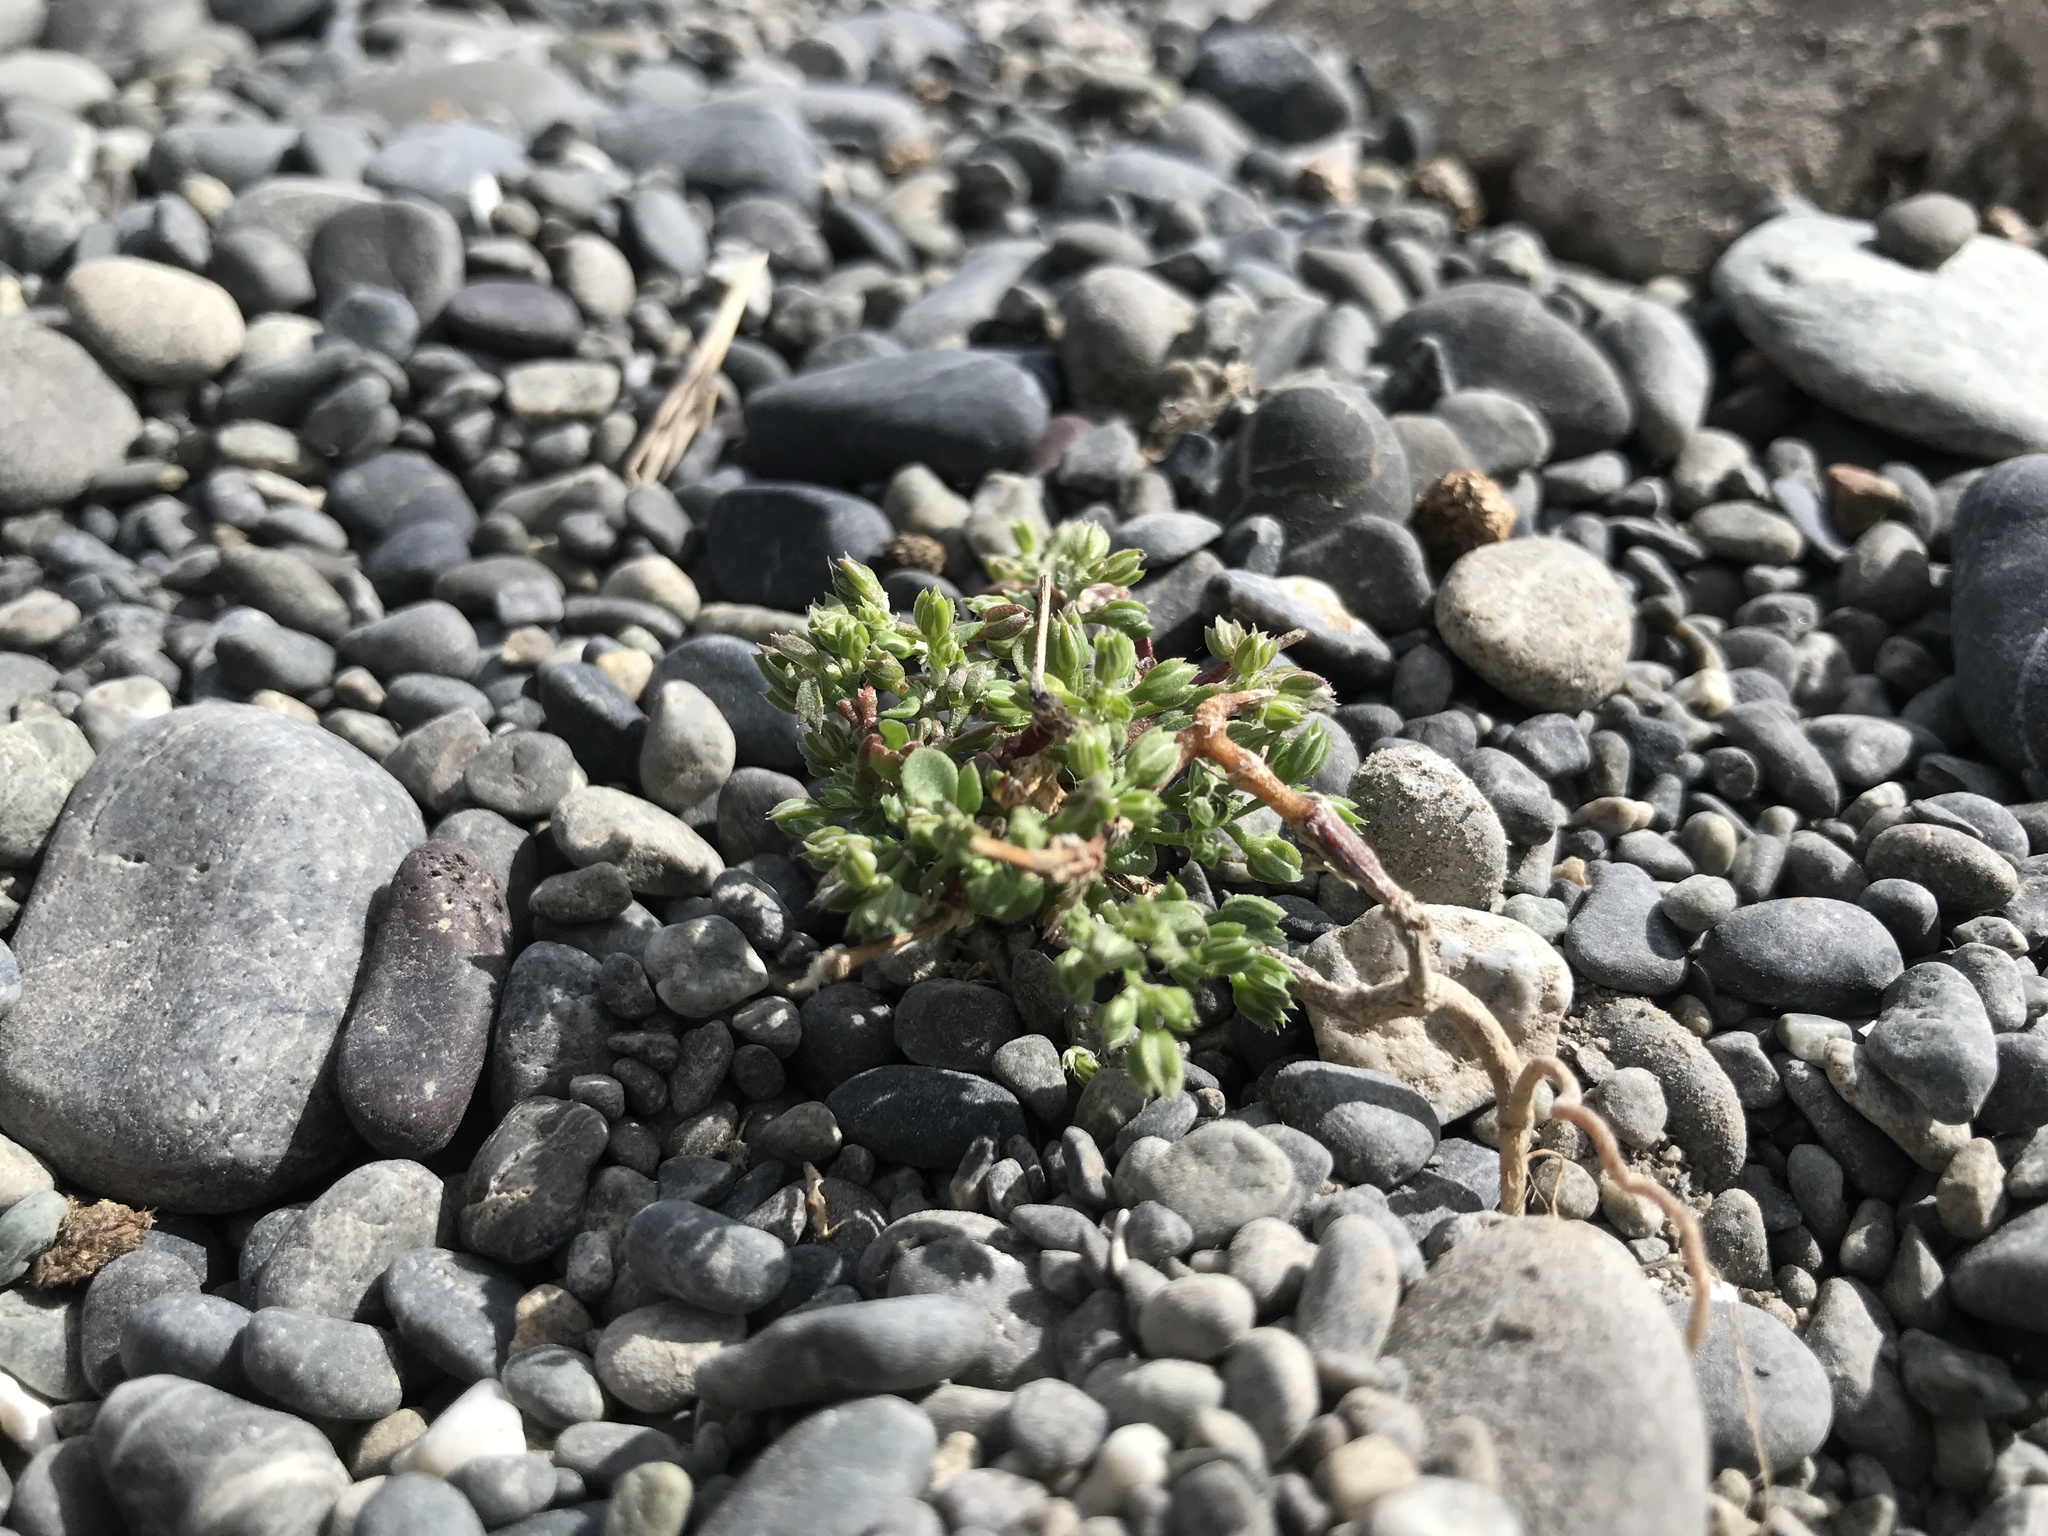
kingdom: Plantae
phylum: Tracheophyta
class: Magnoliopsida
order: Caryophyllales
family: Caryophyllaceae
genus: Polycarpon
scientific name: Polycarpon tetraphyllum
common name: Four-leaved all-seed
